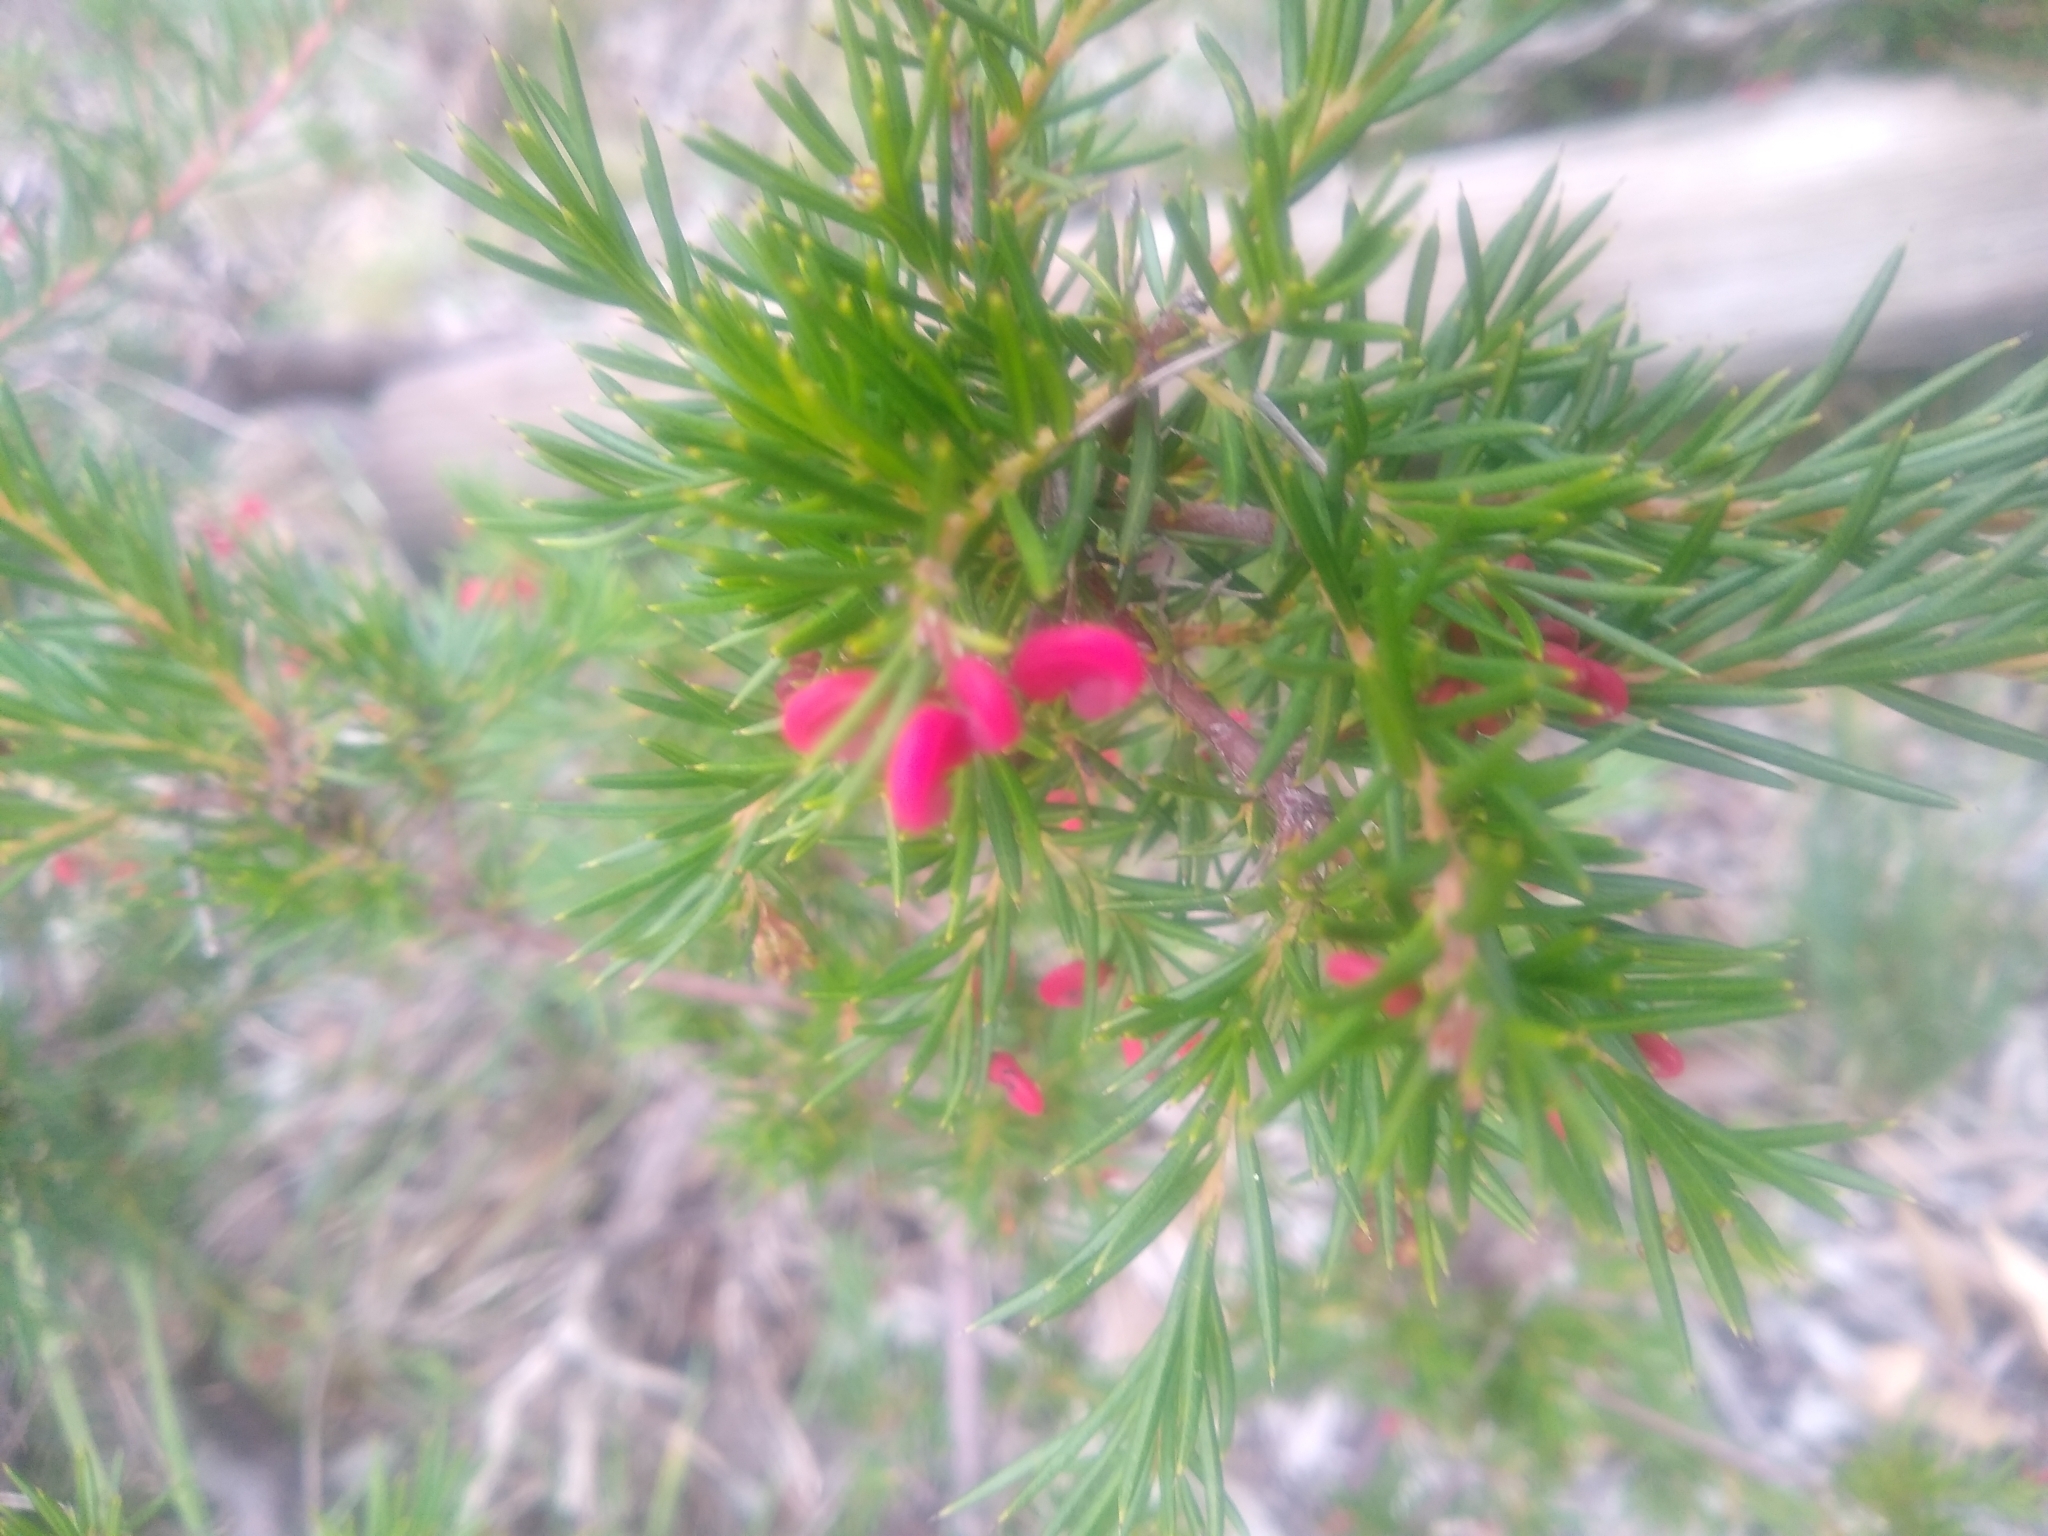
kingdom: Plantae
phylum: Tracheophyta
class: Magnoliopsida
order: Proteales
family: Proteaceae
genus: Grevillea
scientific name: Grevillea rosmarinifolia
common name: Rosemary grevillea
